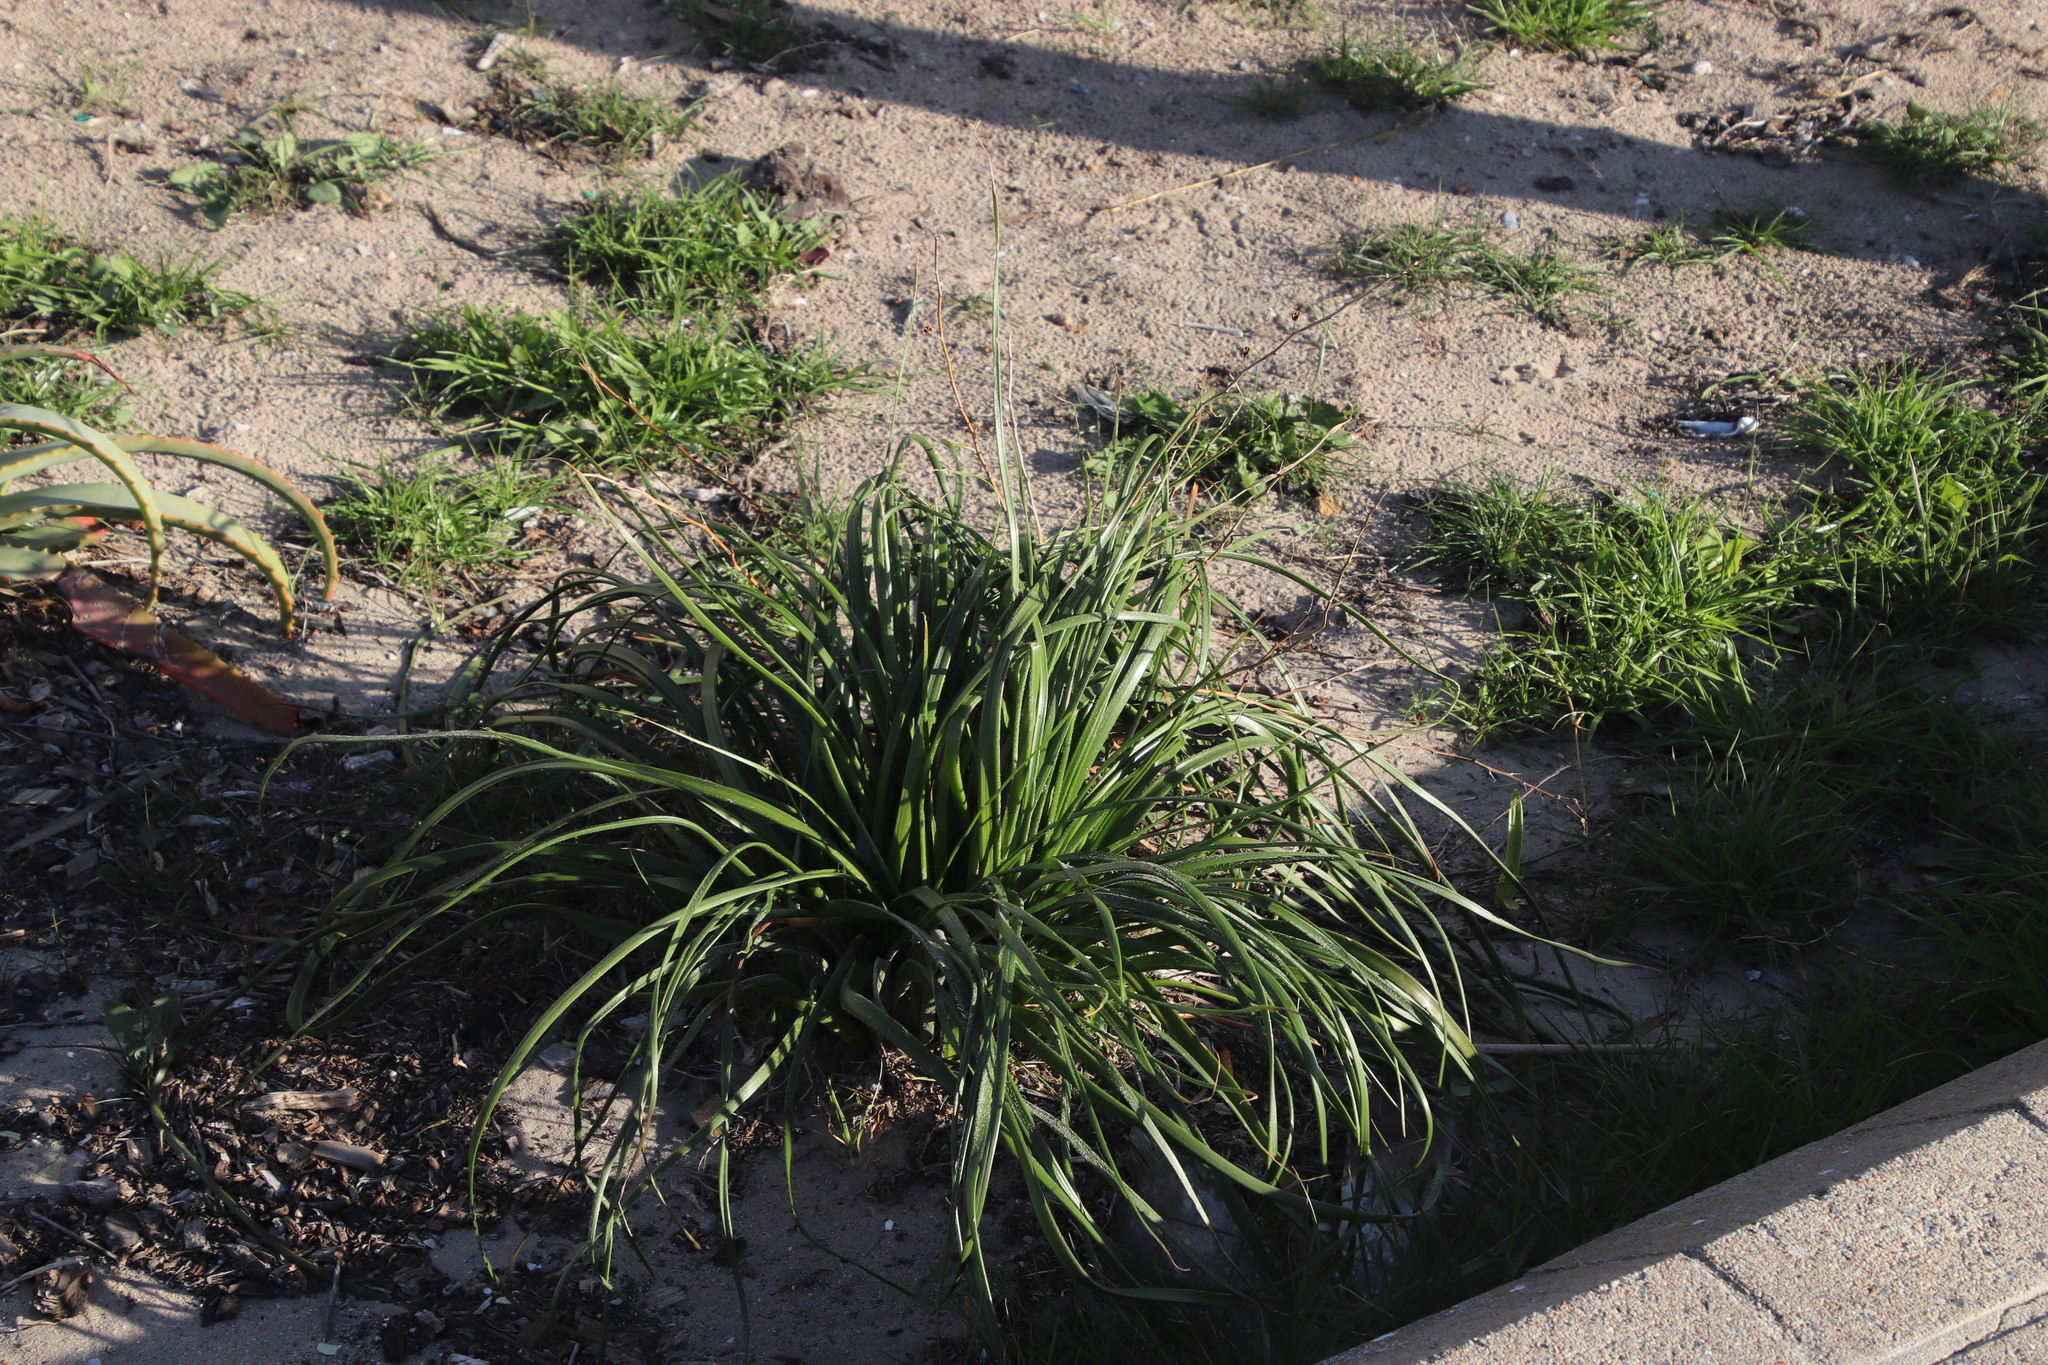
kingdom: Plantae
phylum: Tracheophyta
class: Liliopsida
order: Asparagales
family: Asphodelaceae
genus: Trachyandra
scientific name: Trachyandra divaricata
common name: Dune onionweed
